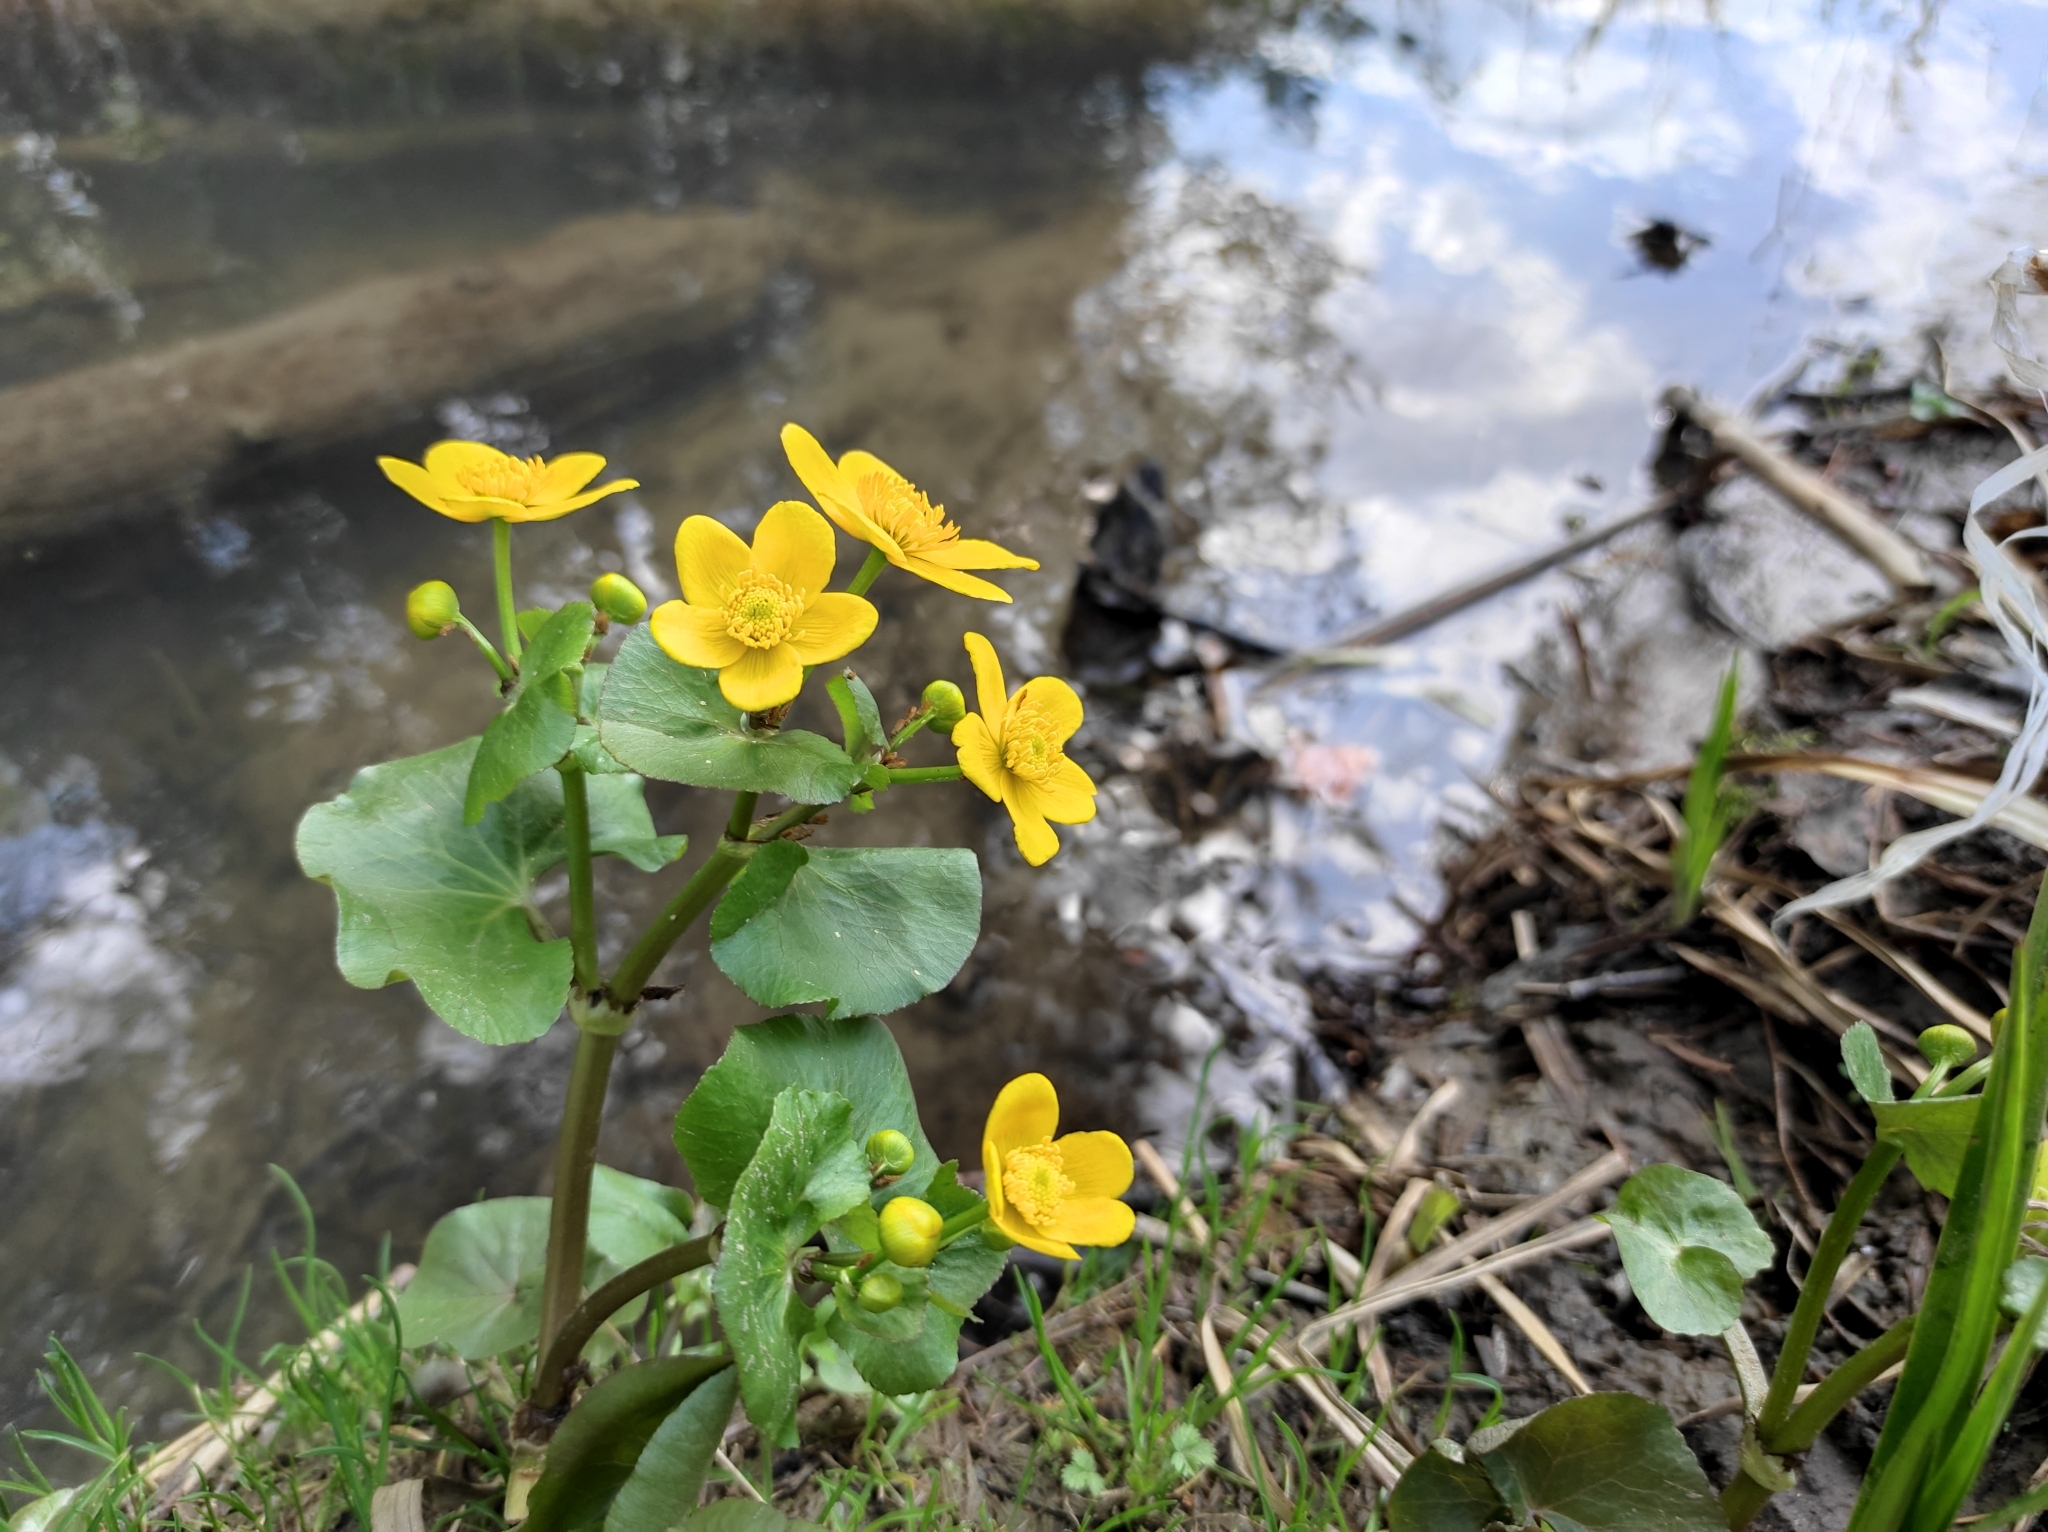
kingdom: Plantae
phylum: Tracheophyta
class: Magnoliopsida
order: Ranunculales
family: Ranunculaceae
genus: Caltha
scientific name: Caltha palustris
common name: Marsh marigold
